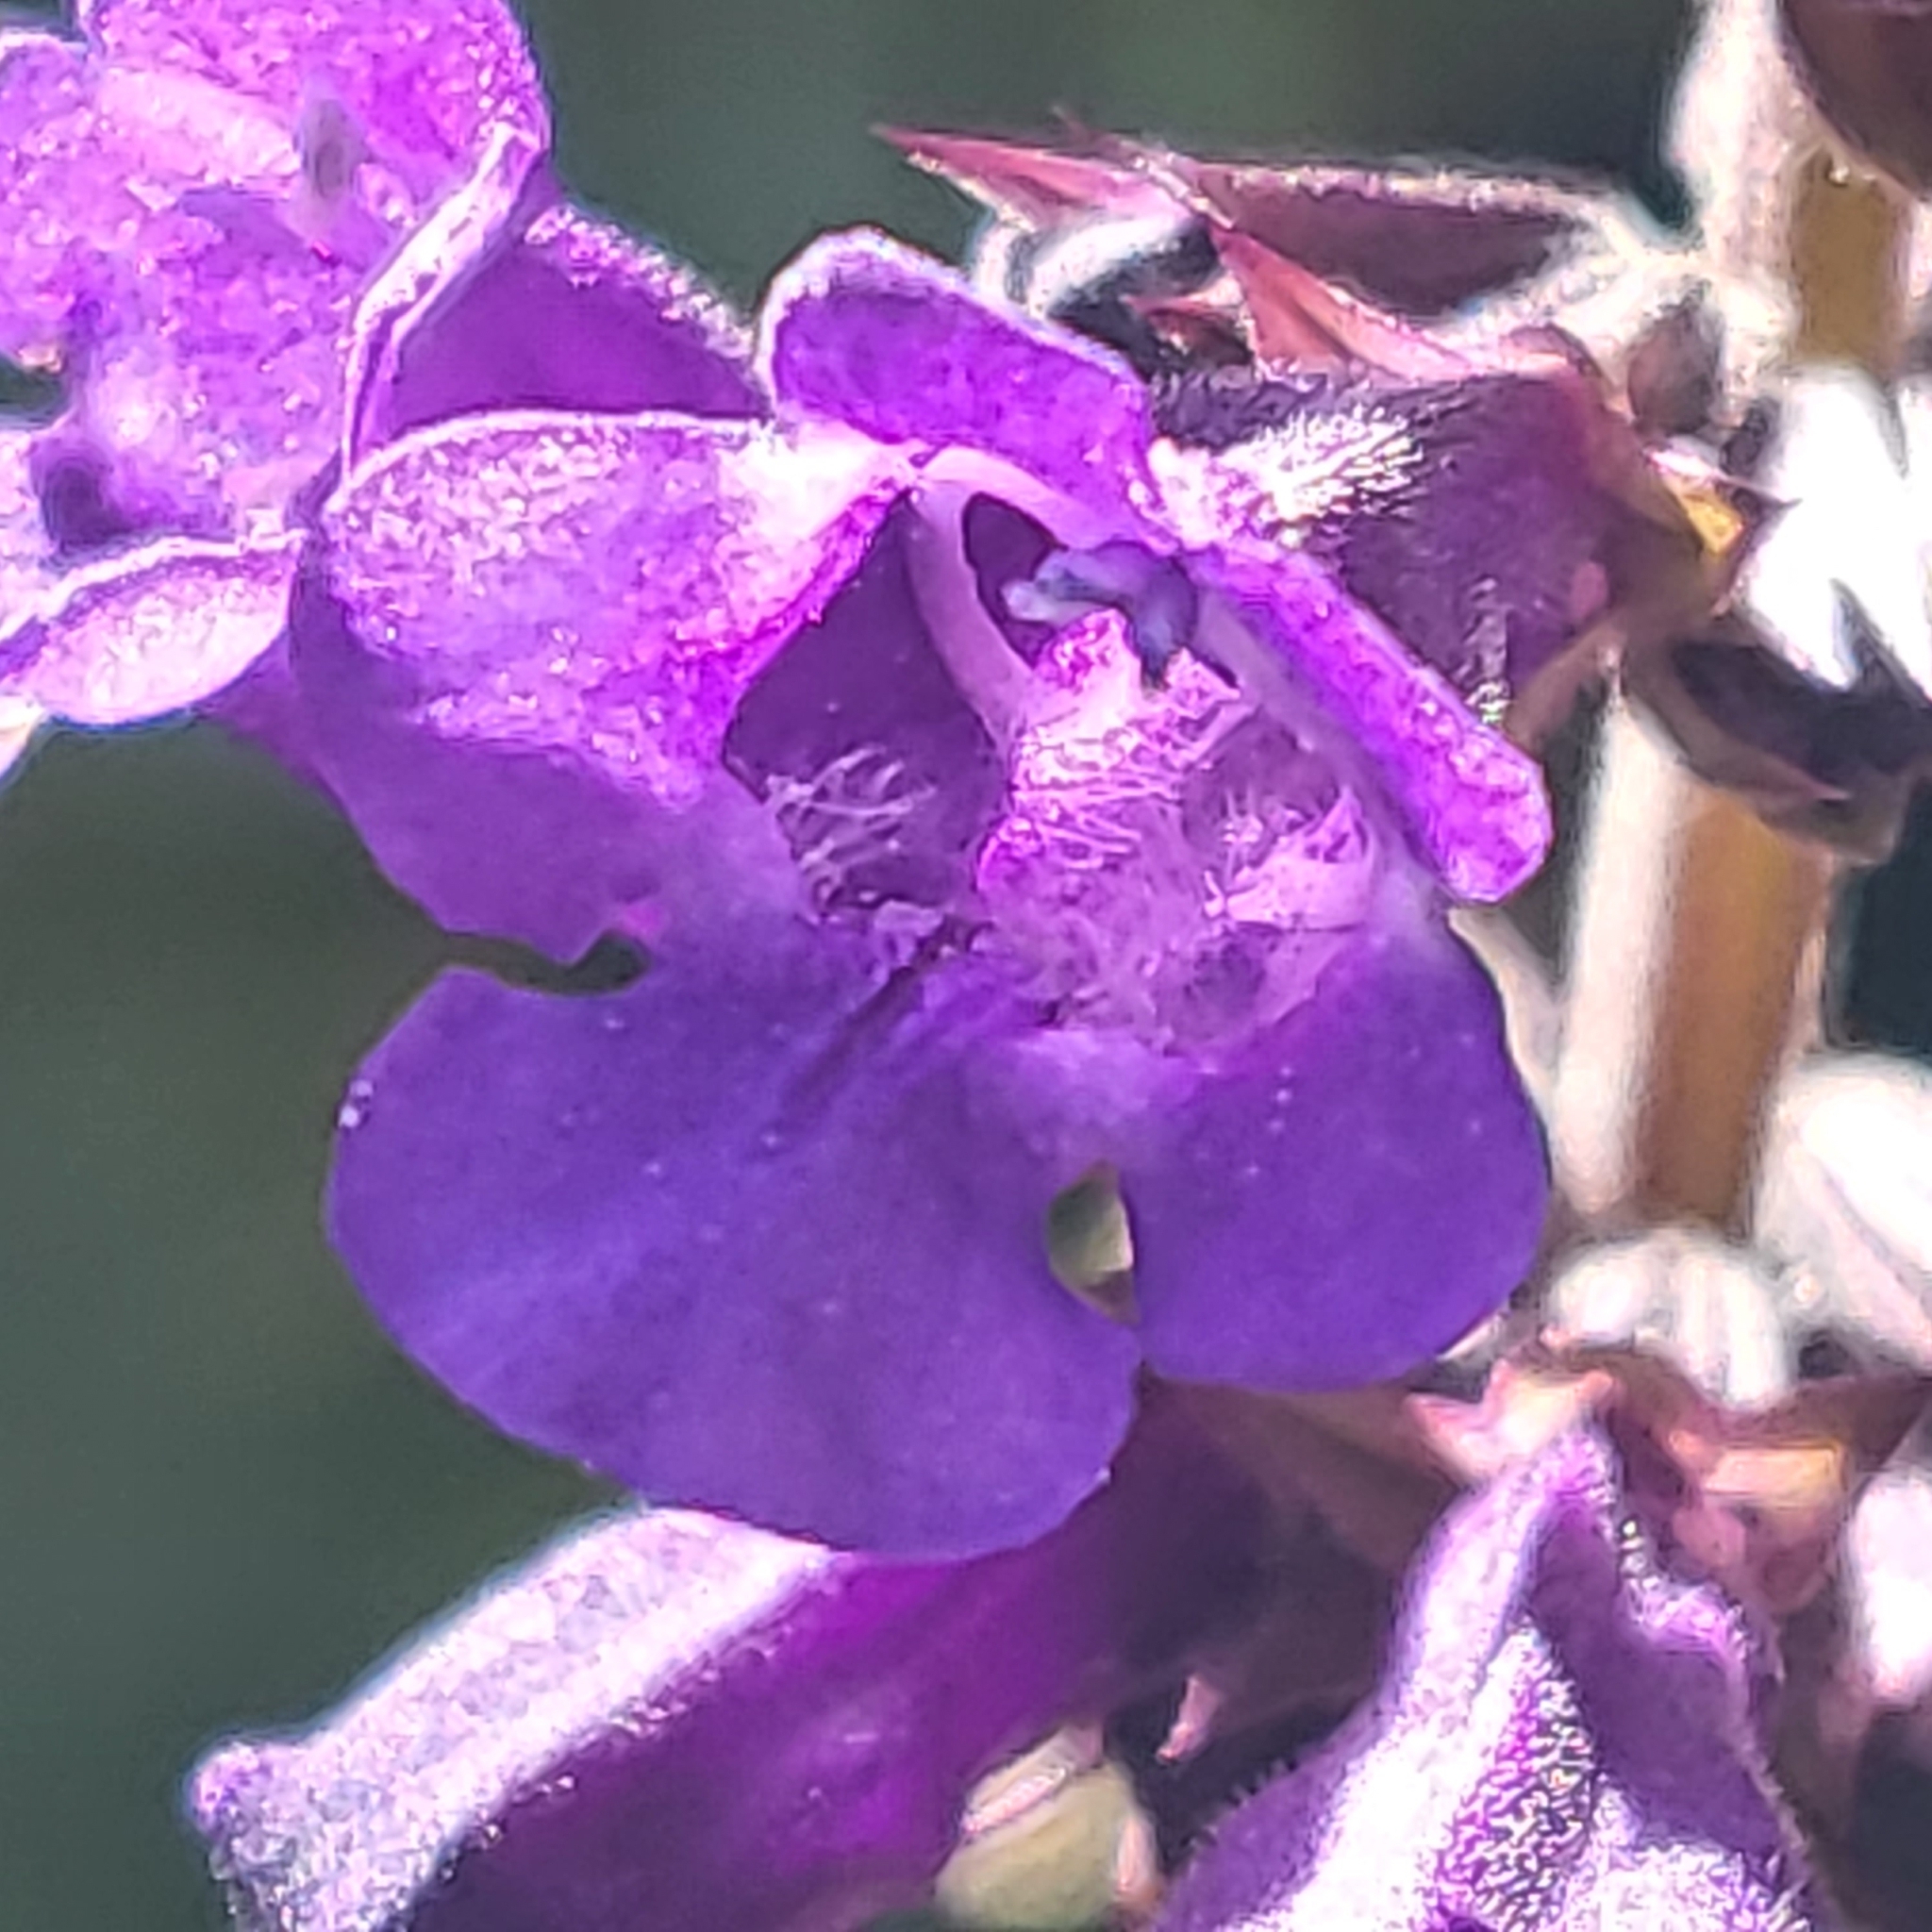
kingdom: Plantae
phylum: Tracheophyta
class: Magnoliopsida
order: Lamiales
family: Lamiaceae
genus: Horminum
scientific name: Horminum pyrenaicum
